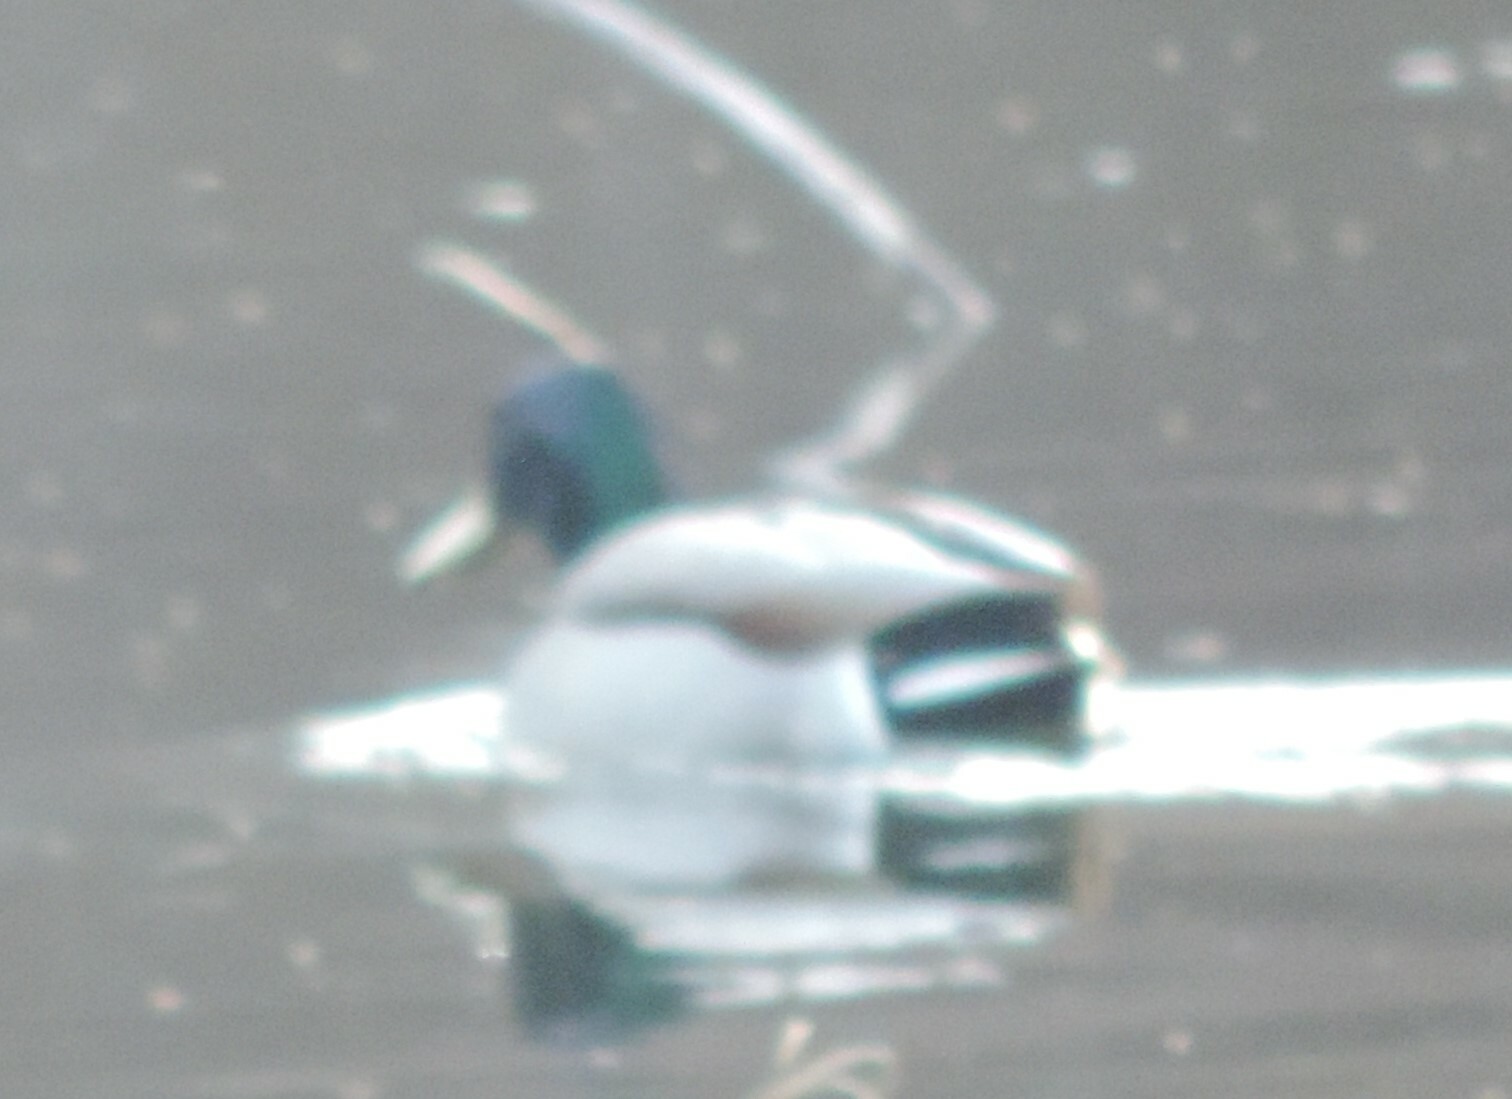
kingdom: Animalia
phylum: Chordata
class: Aves
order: Anseriformes
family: Anatidae
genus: Anas
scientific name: Anas platyrhynchos
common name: Mallard
